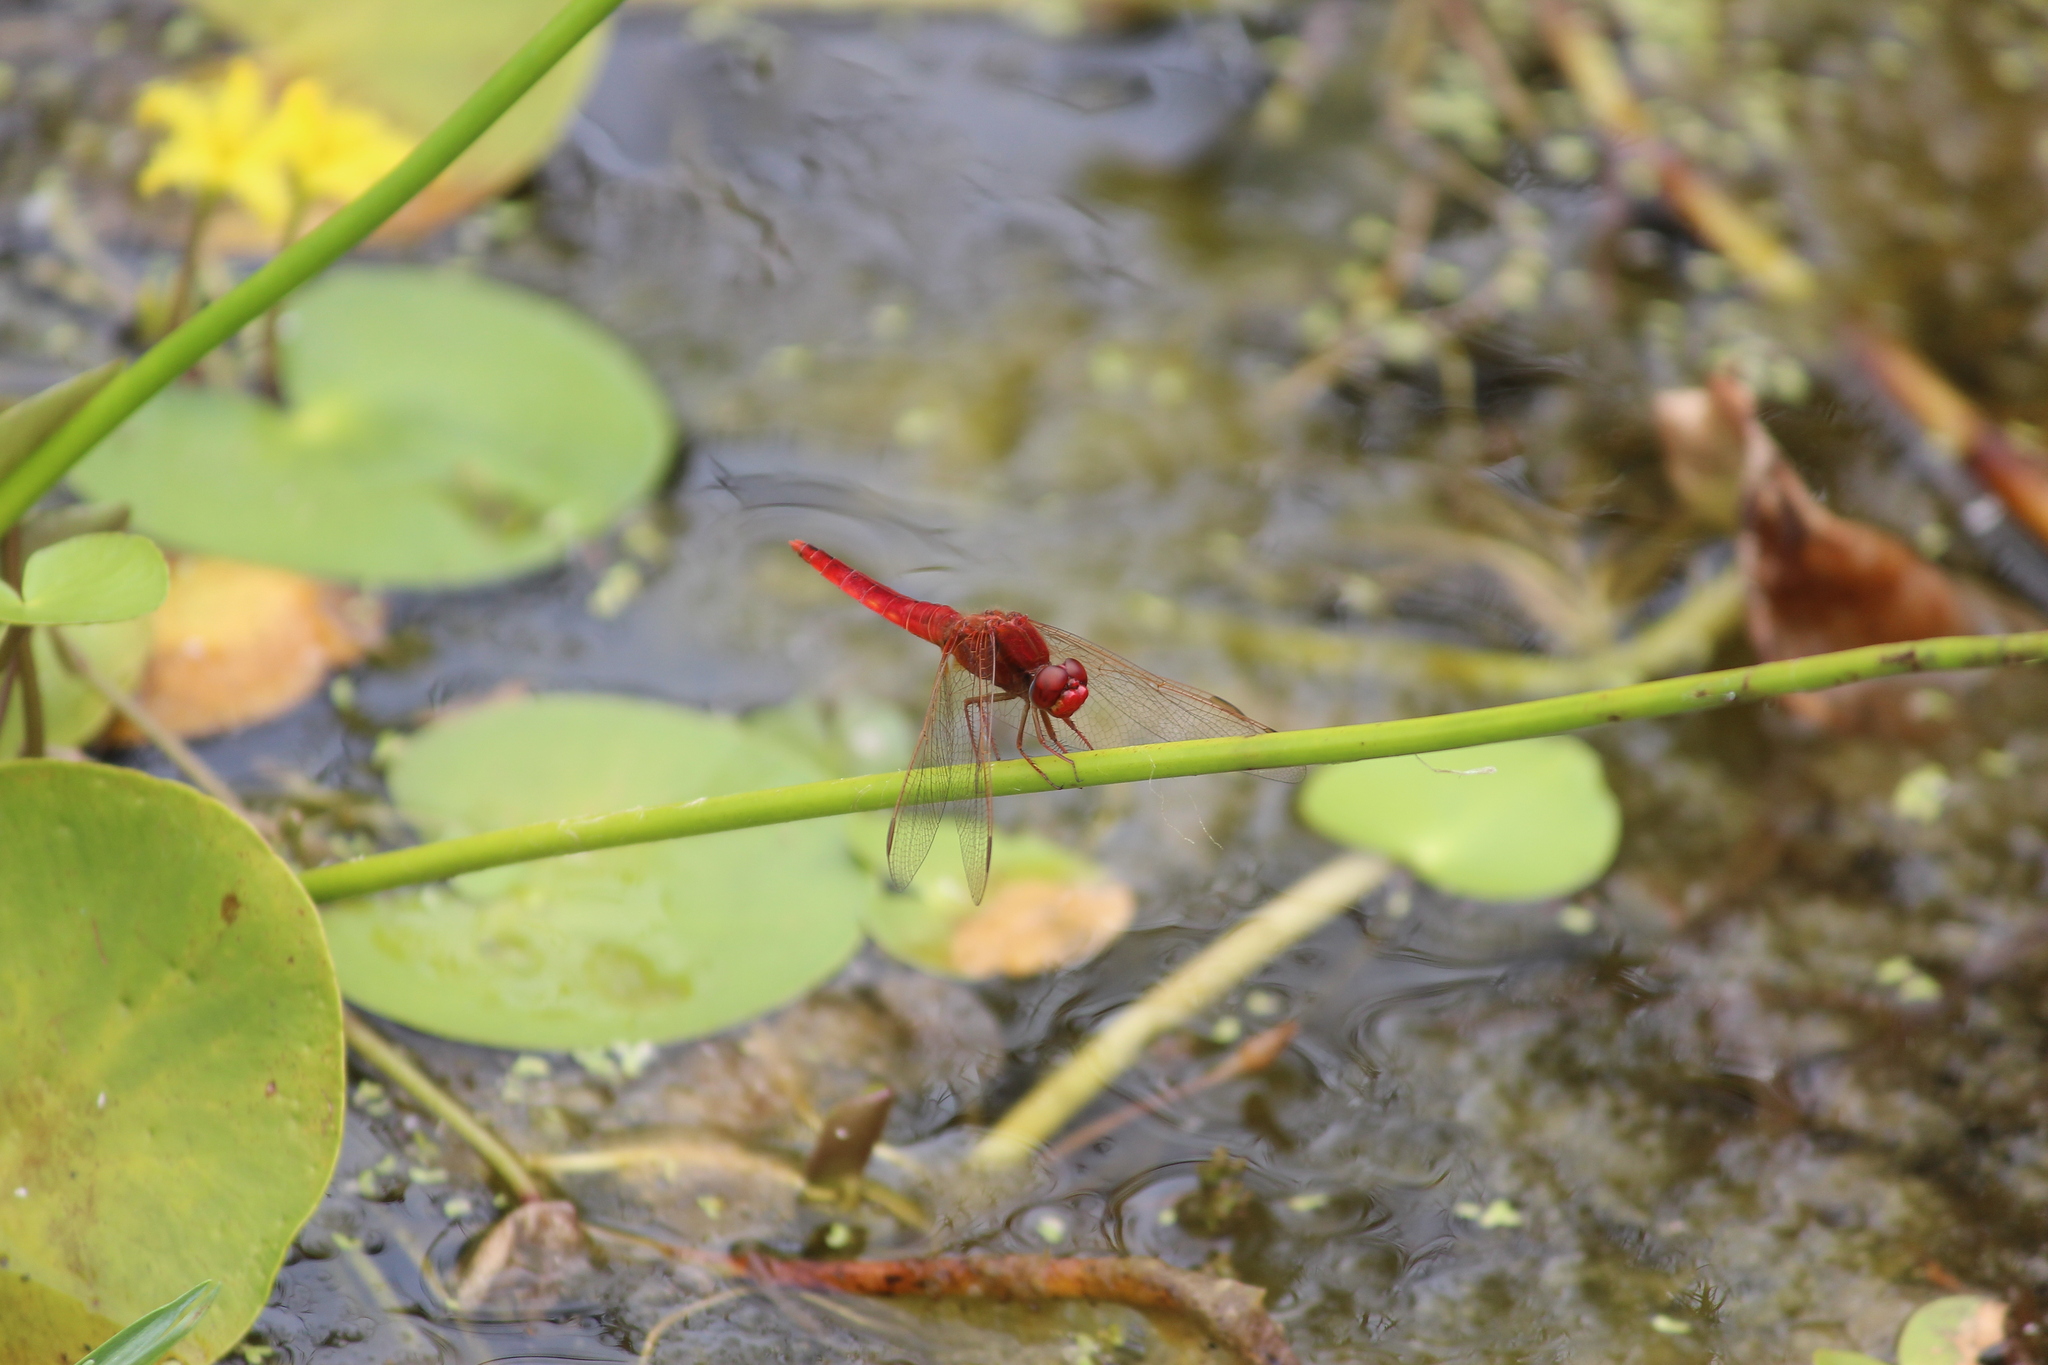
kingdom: Animalia
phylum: Arthropoda
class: Insecta
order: Odonata
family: Libellulidae
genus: Crocothemis
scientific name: Crocothemis erythraea
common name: Scarlet dragonfly
